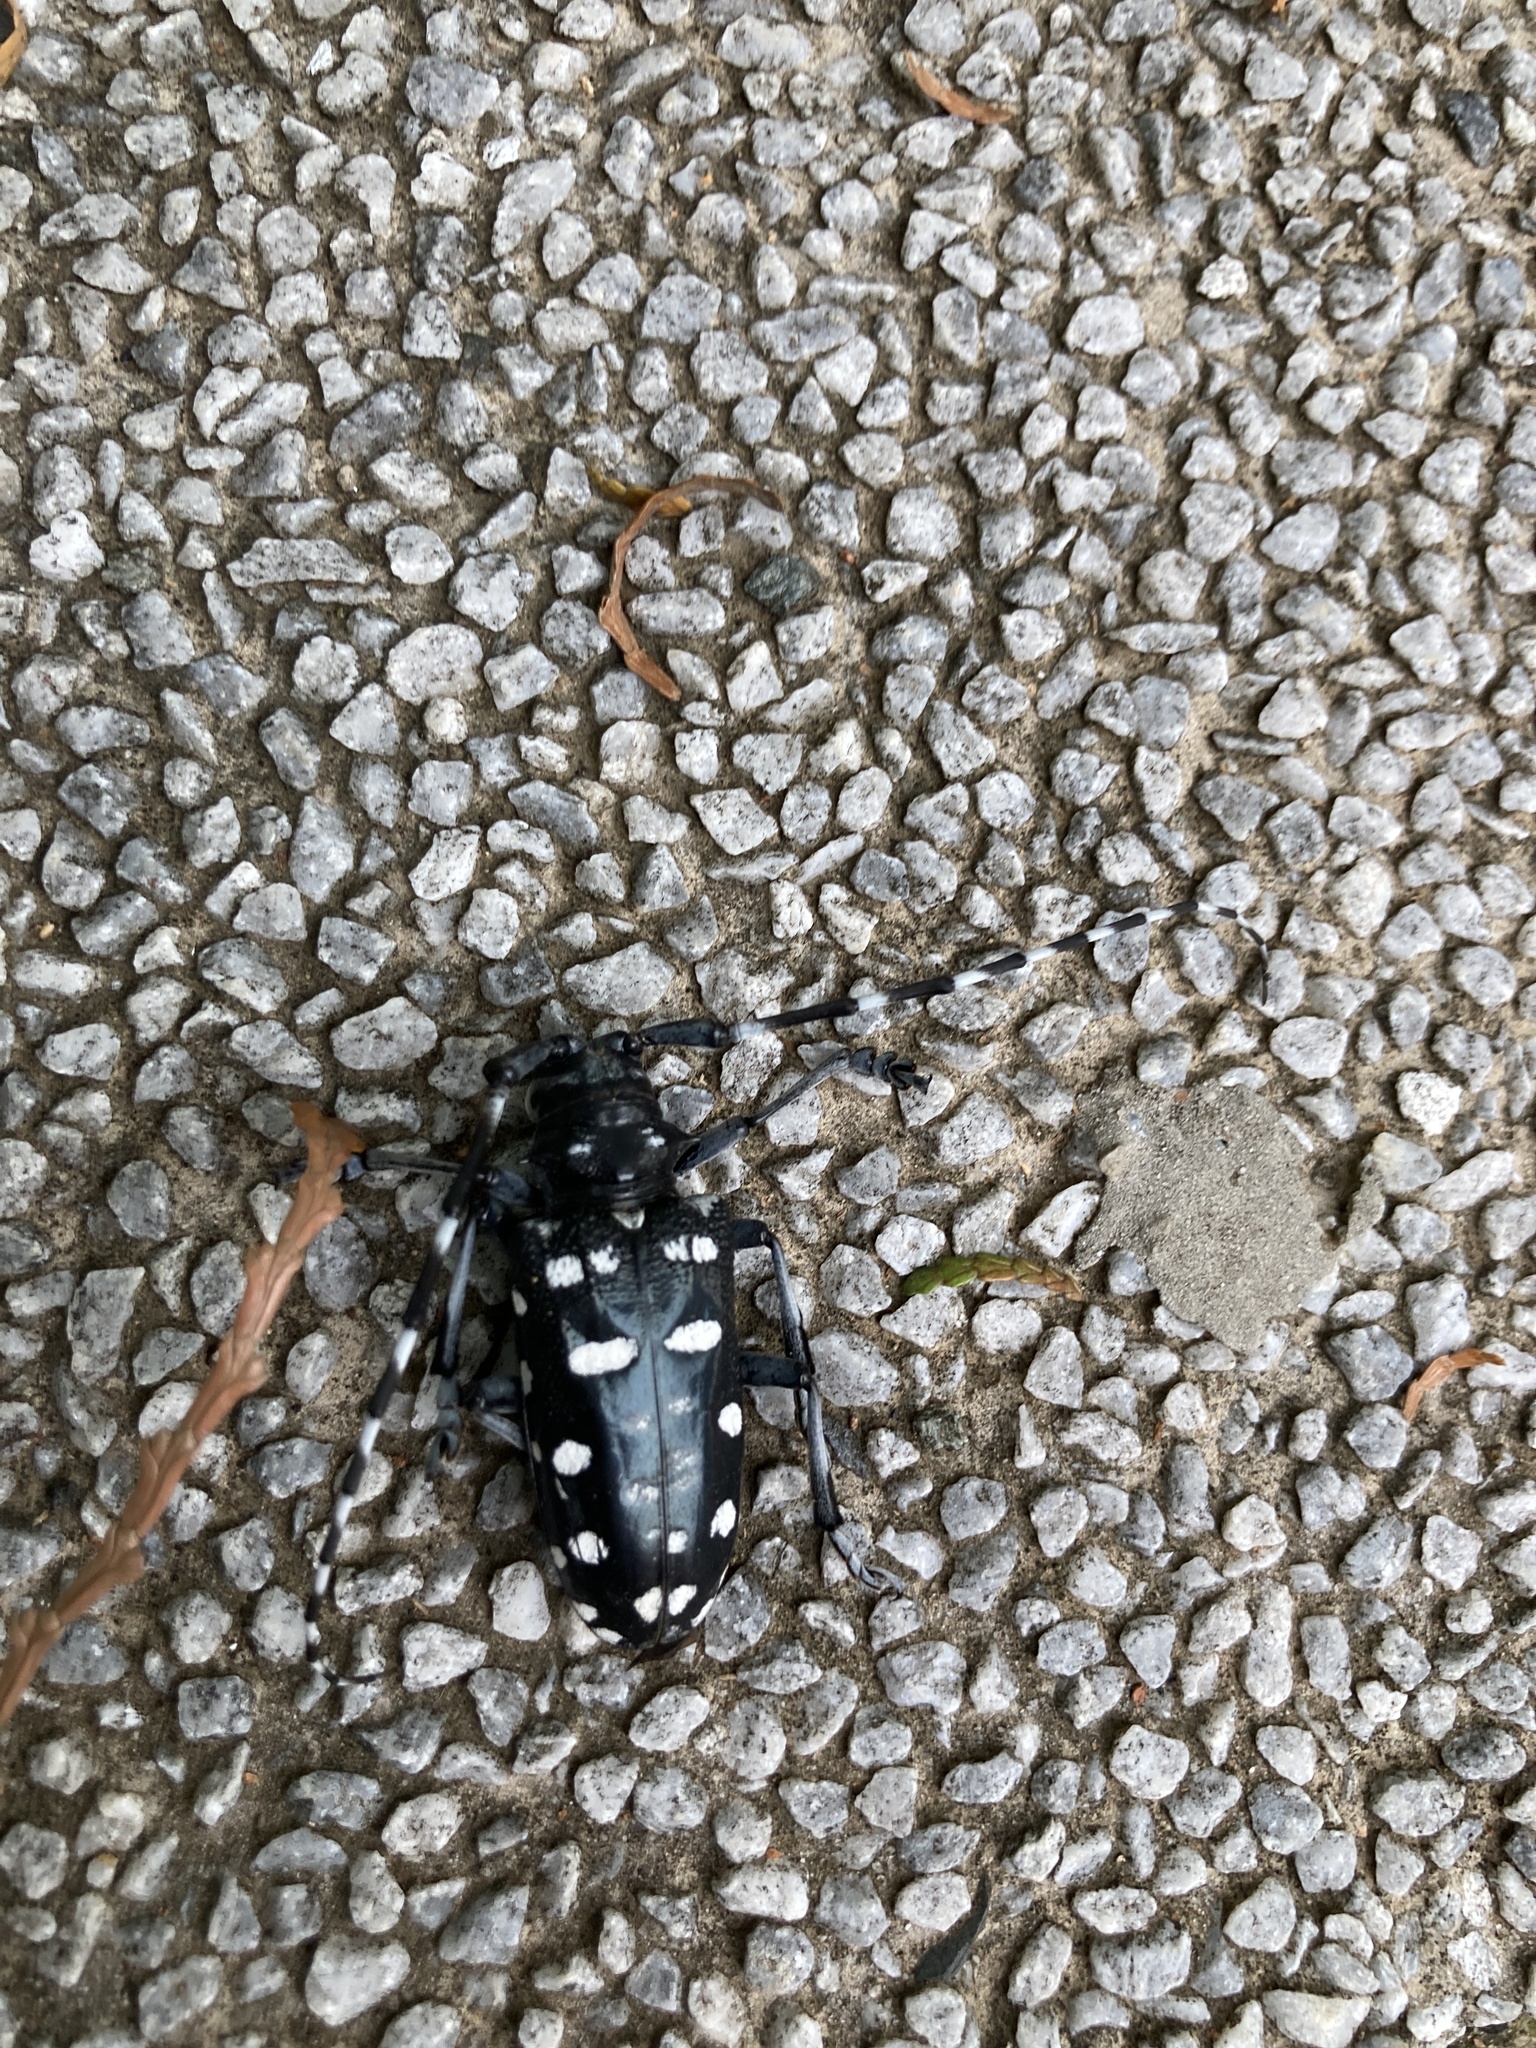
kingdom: Animalia
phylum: Arthropoda
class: Insecta
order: Coleoptera
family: Cerambycidae
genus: Anoplophora
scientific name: Anoplophora macularia
